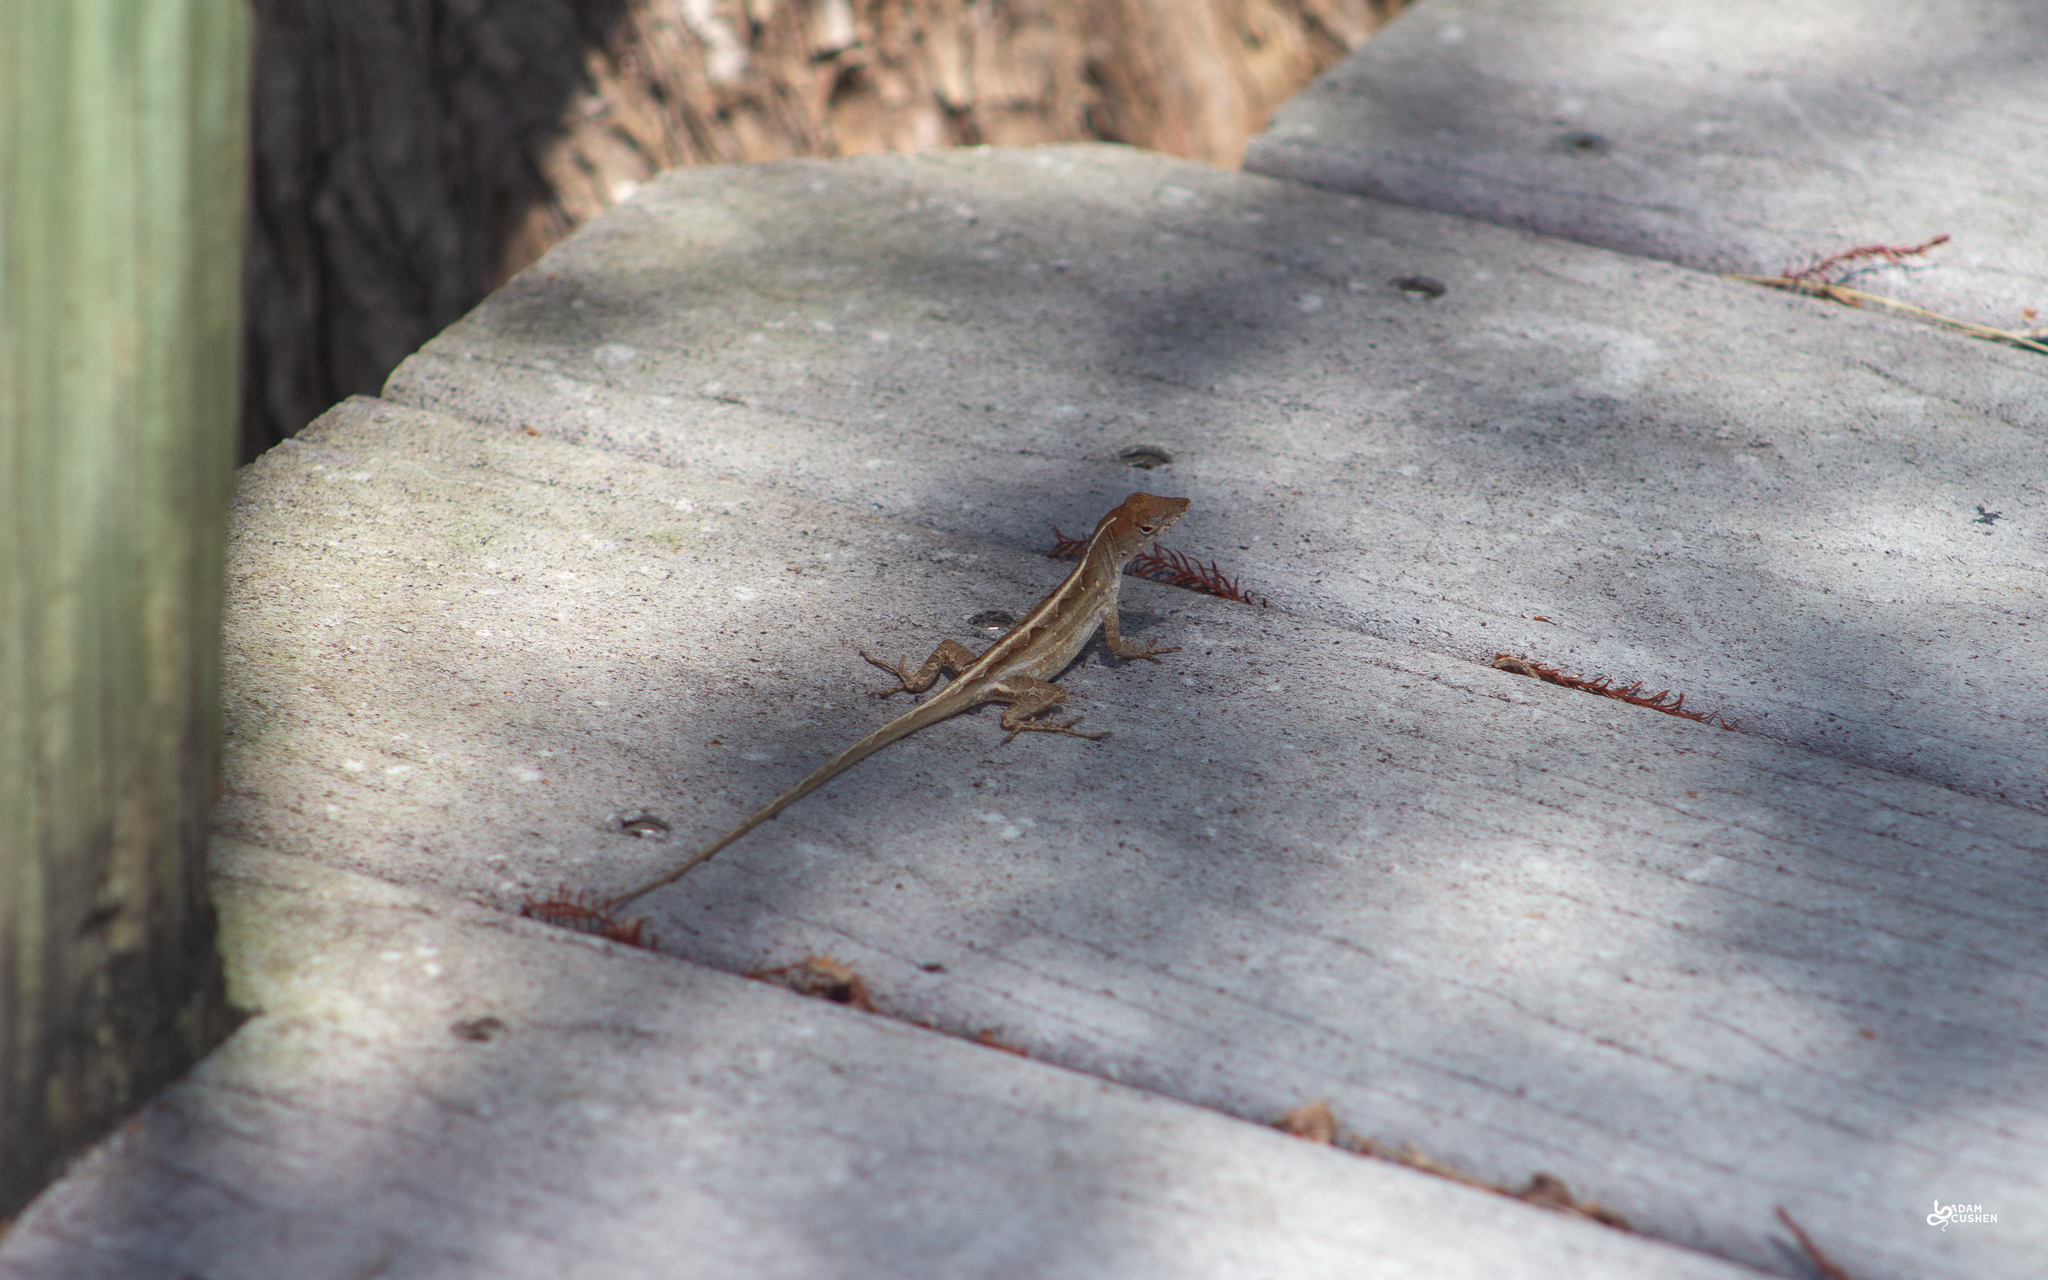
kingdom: Animalia
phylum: Chordata
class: Squamata
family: Dactyloidae
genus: Anolis
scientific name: Anolis sagrei
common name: Brown anole
